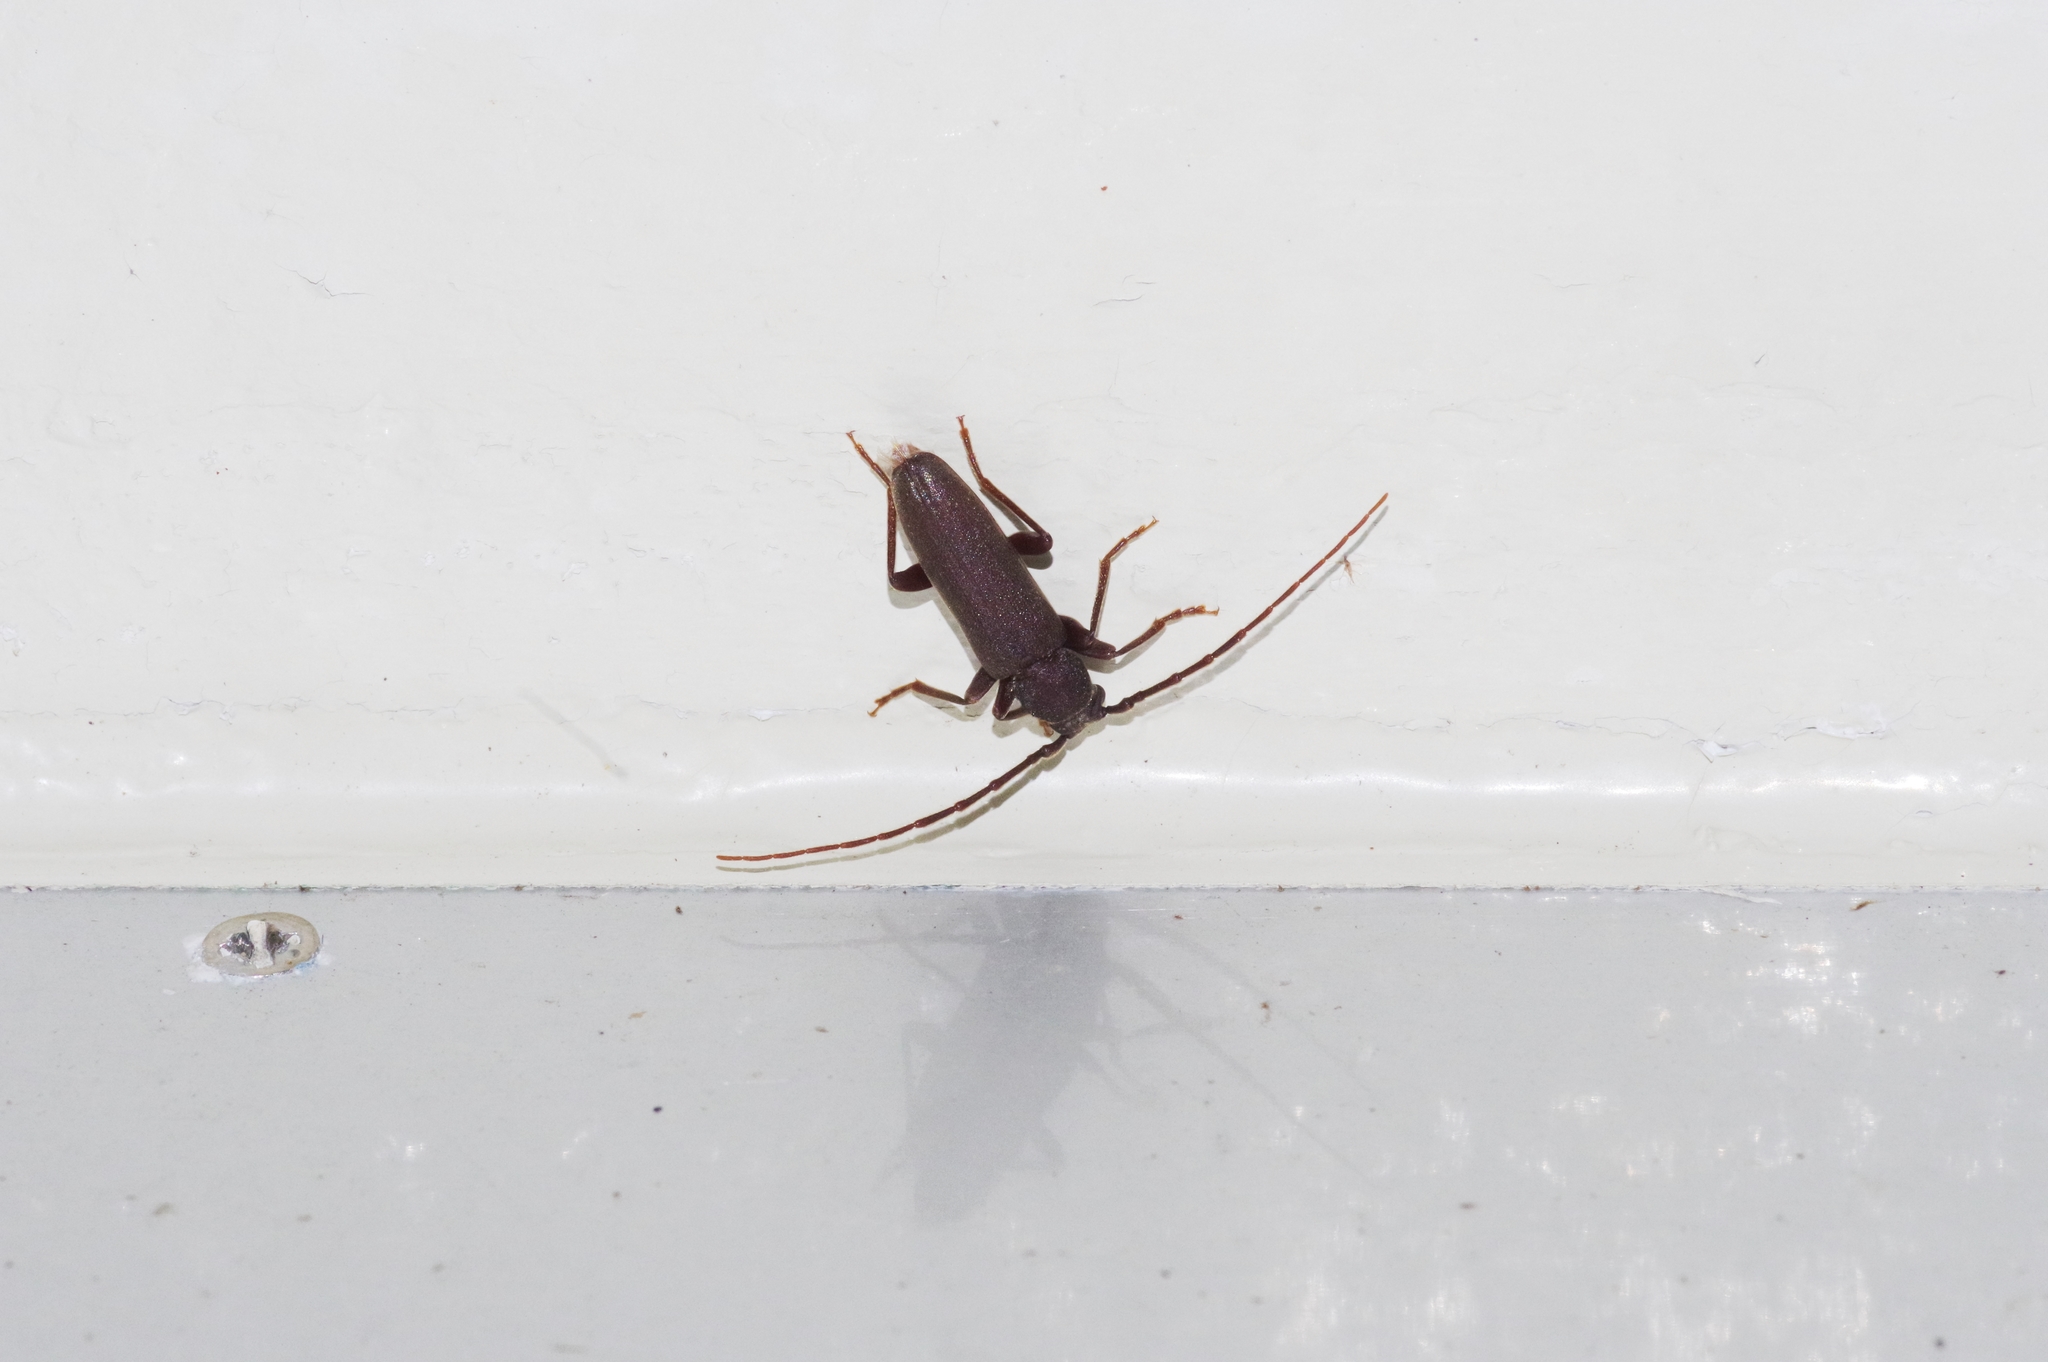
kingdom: Animalia
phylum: Arthropoda
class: Insecta
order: Coleoptera
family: Cerambycidae
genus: Cephalallus
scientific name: Cephalallus ryukyuensis
